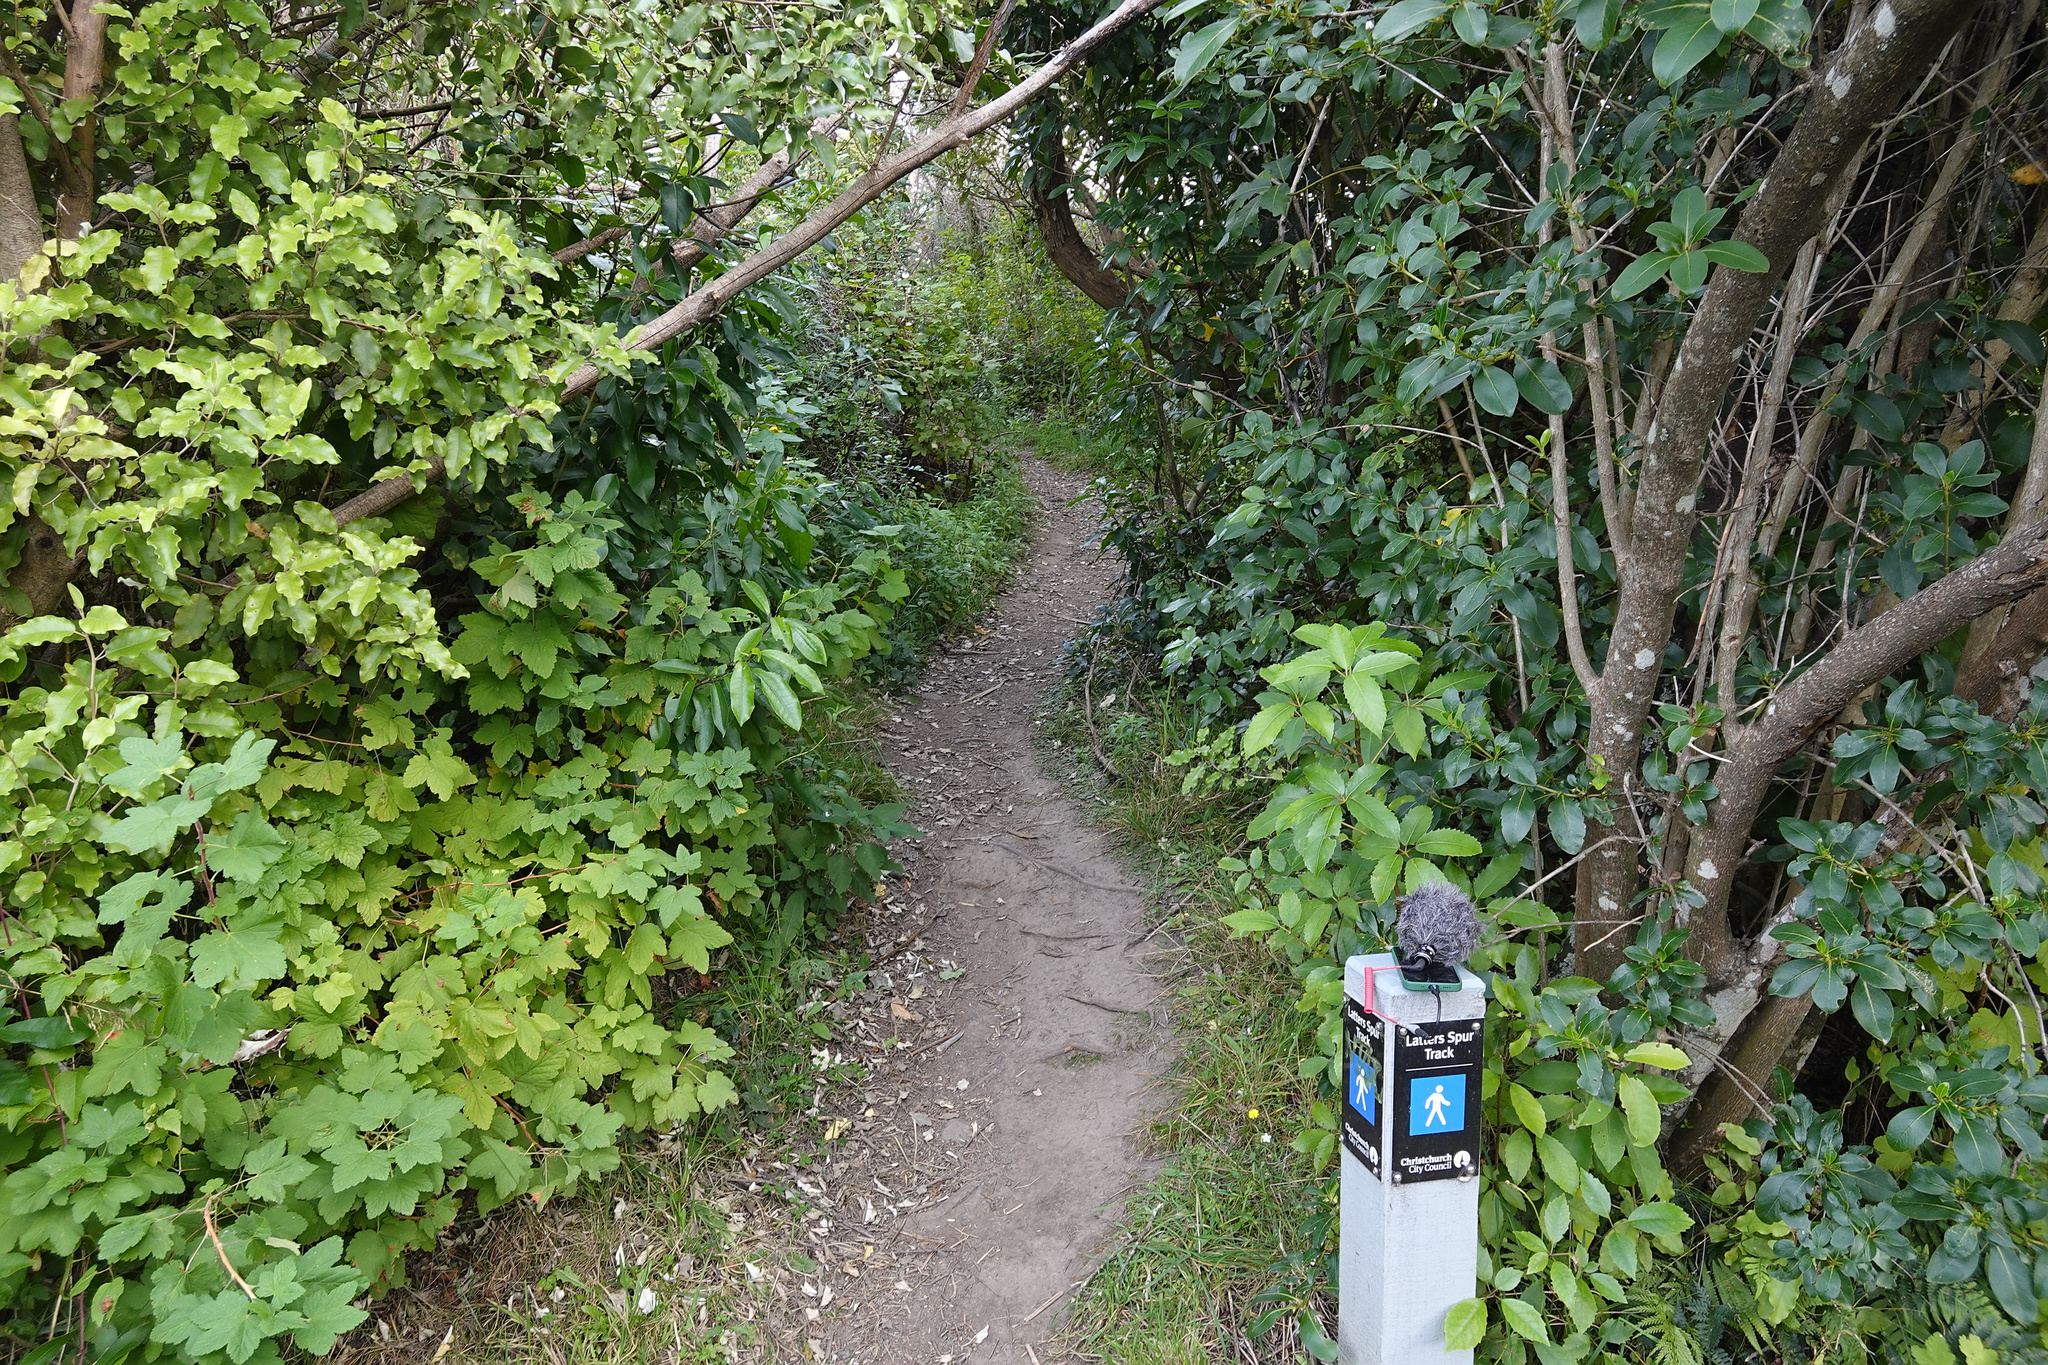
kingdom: Plantae
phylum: Tracheophyta
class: Magnoliopsida
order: Apiales
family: Araliaceae
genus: Neopanax
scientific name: Neopanax arboreus
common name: Five-fingers
